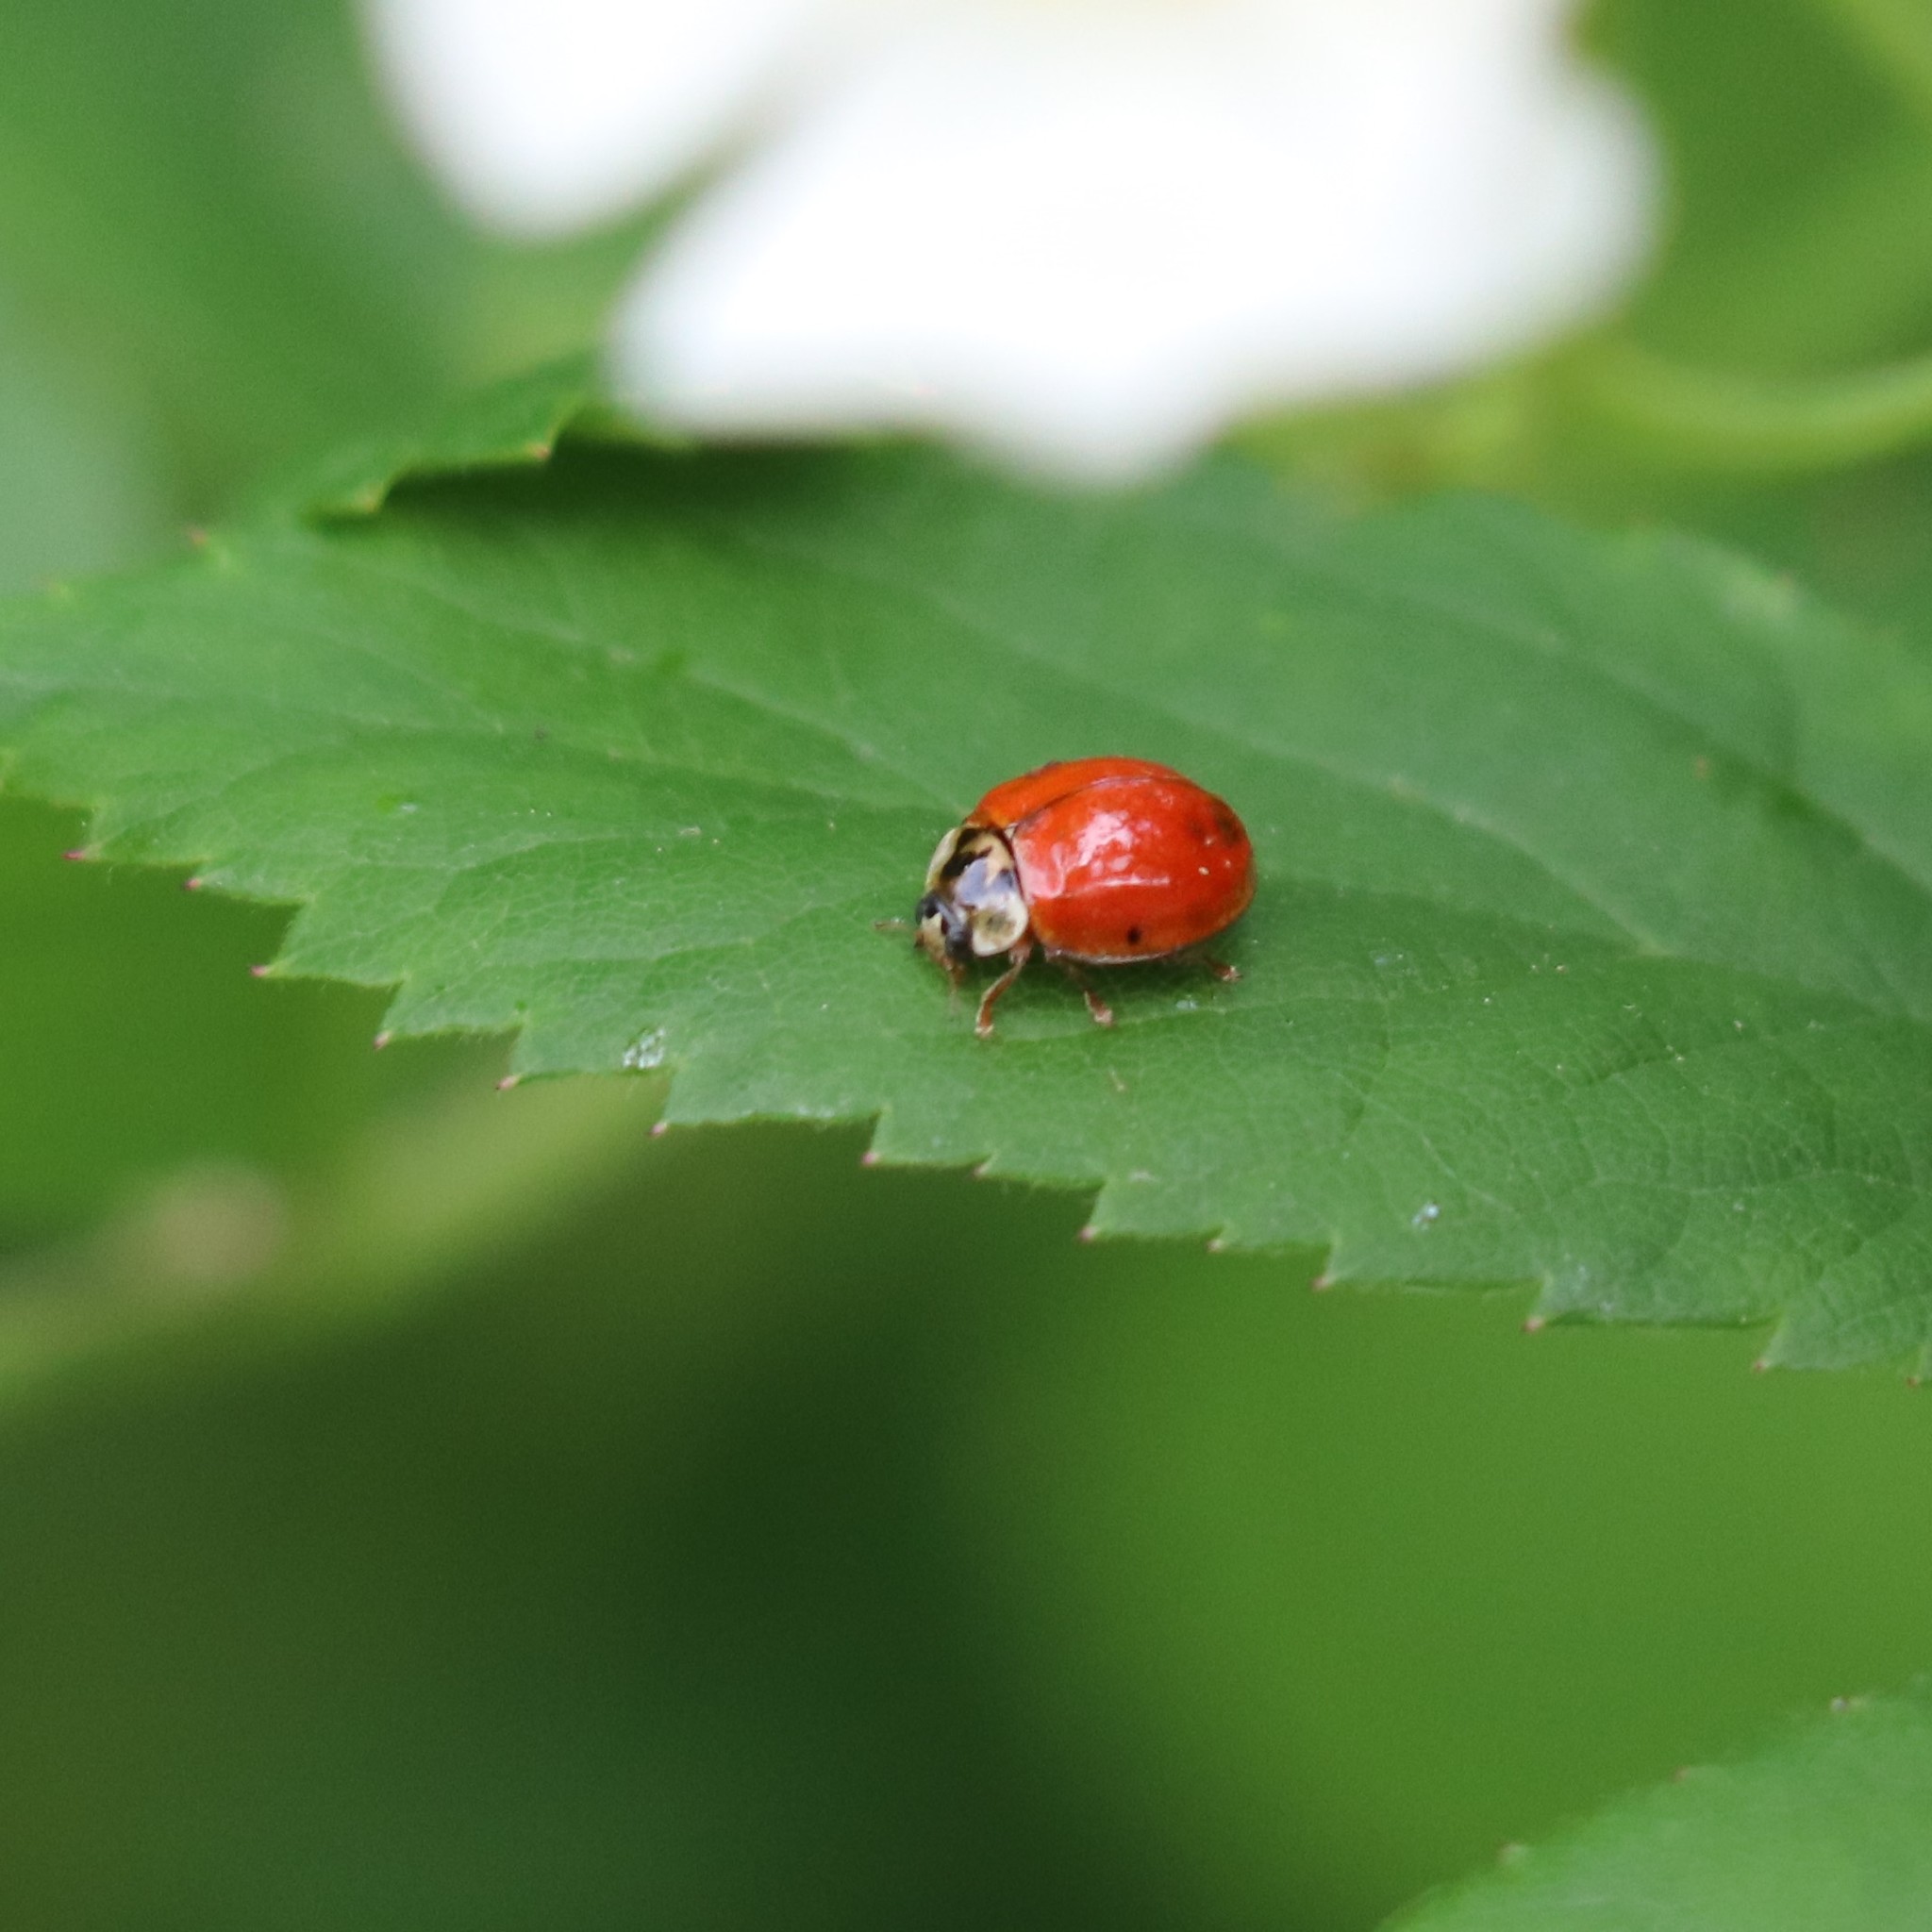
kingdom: Animalia
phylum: Arthropoda
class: Insecta
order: Coleoptera
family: Coccinellidae
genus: Harmonia
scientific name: Harmonia axyridis
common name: Harlequin ladybird
